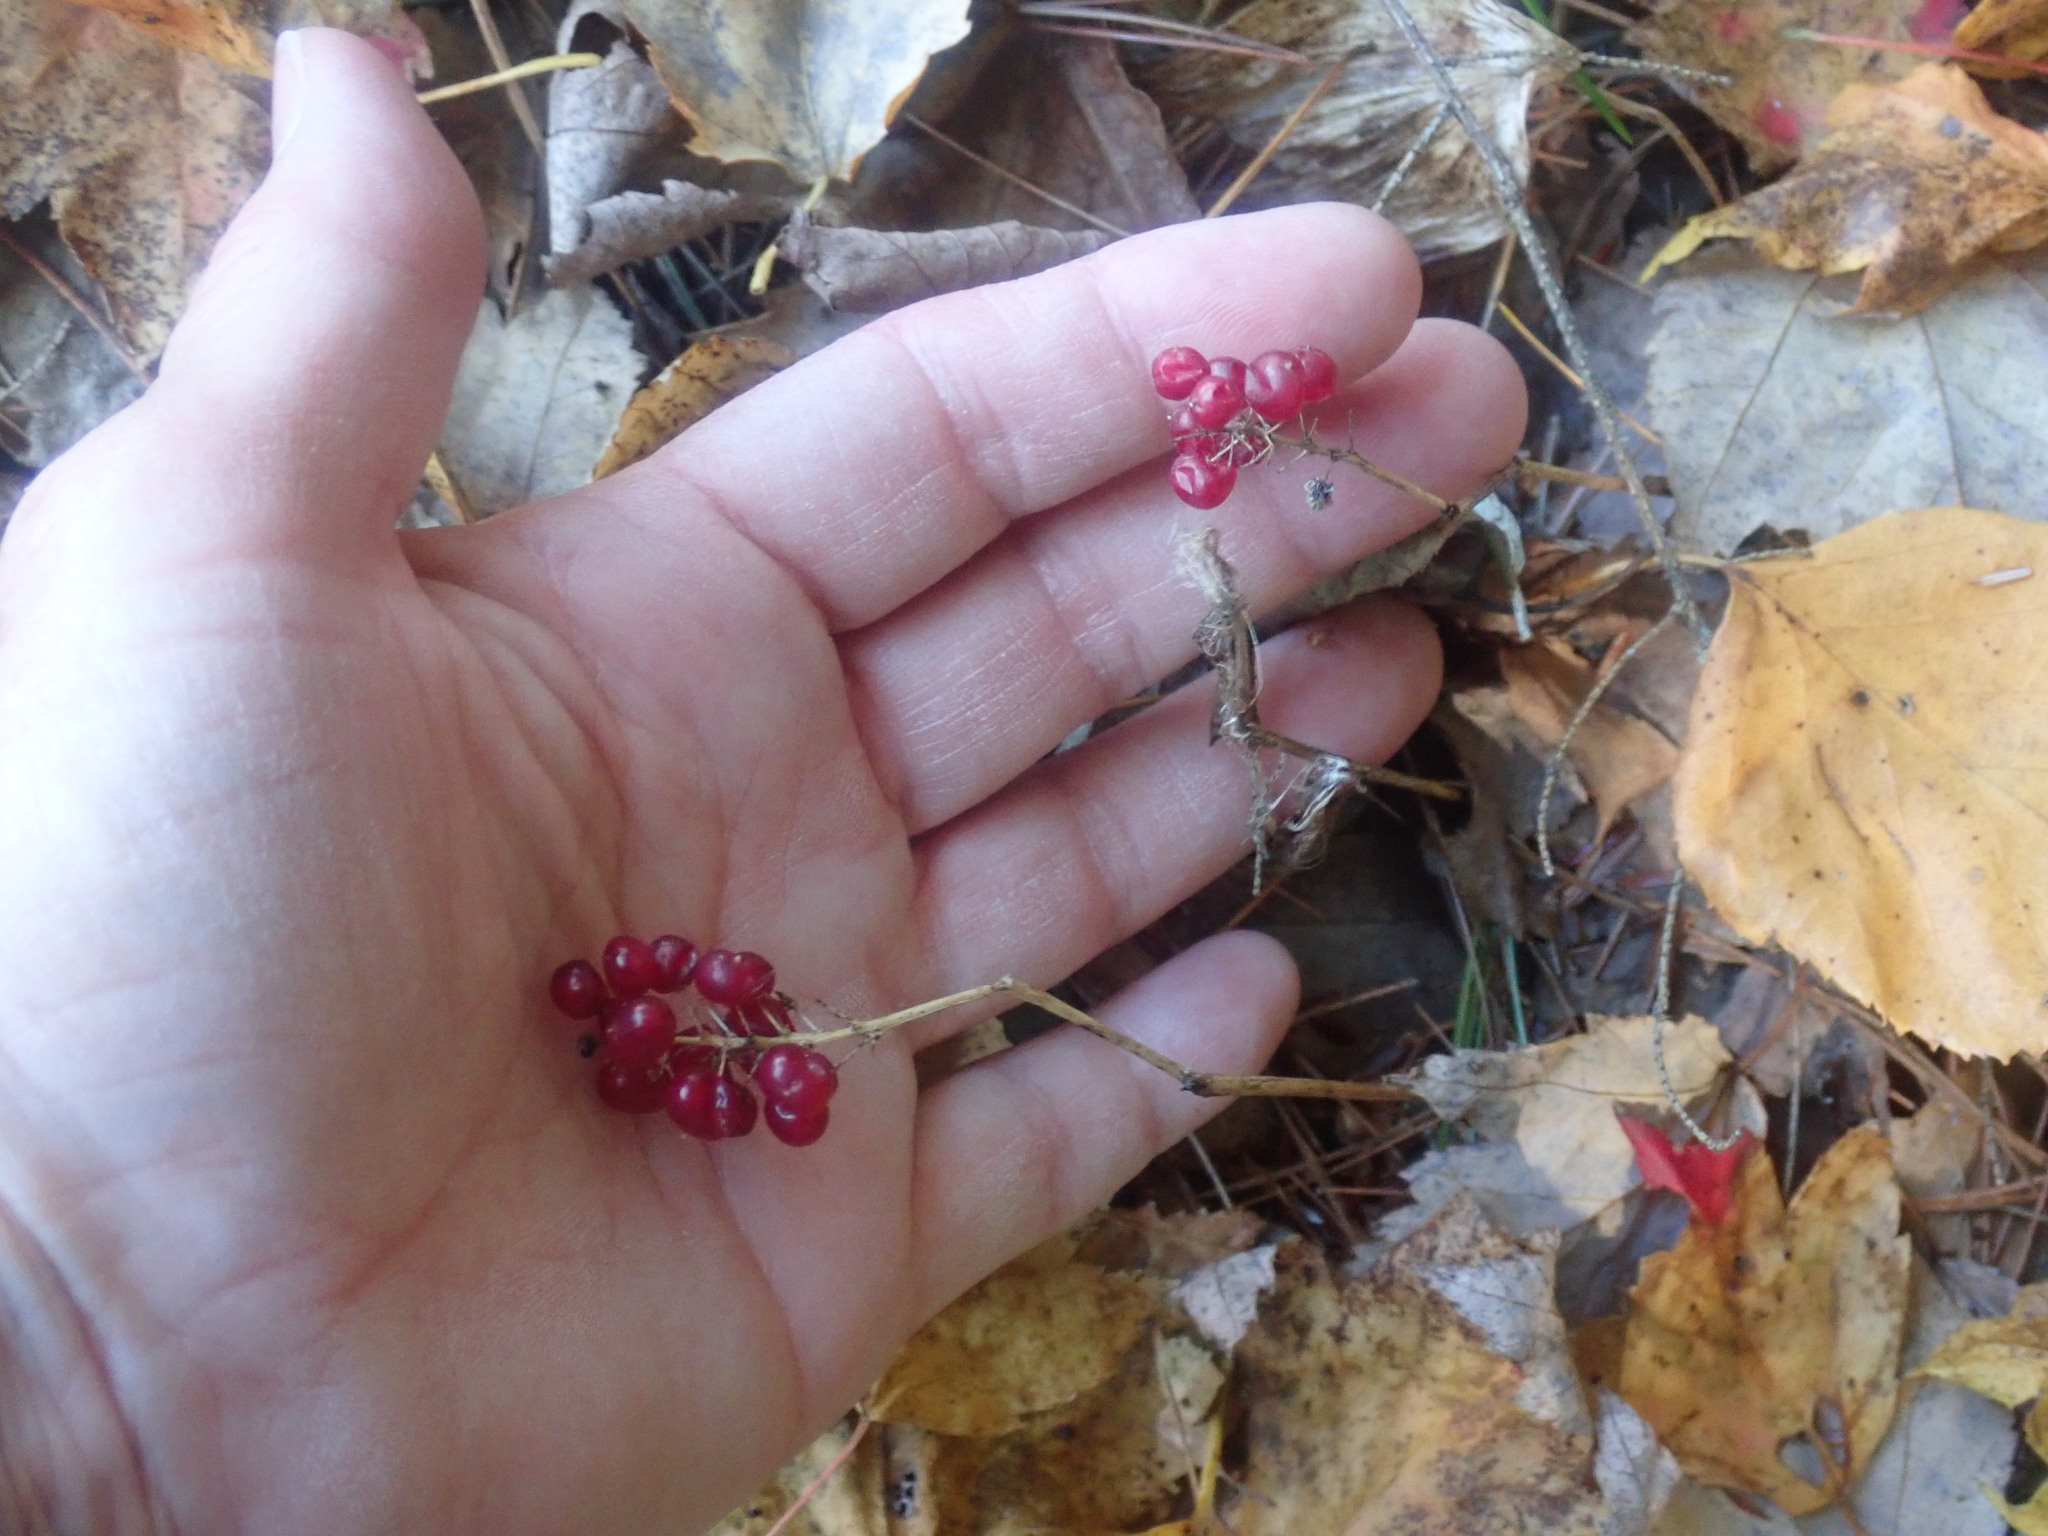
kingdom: Plantae
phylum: Tracheophyta
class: Liliopsida
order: Asparagales
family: Asparagaceae
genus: Maianthemum
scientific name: Maianthemum canadense
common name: False lily-of-the-valley
